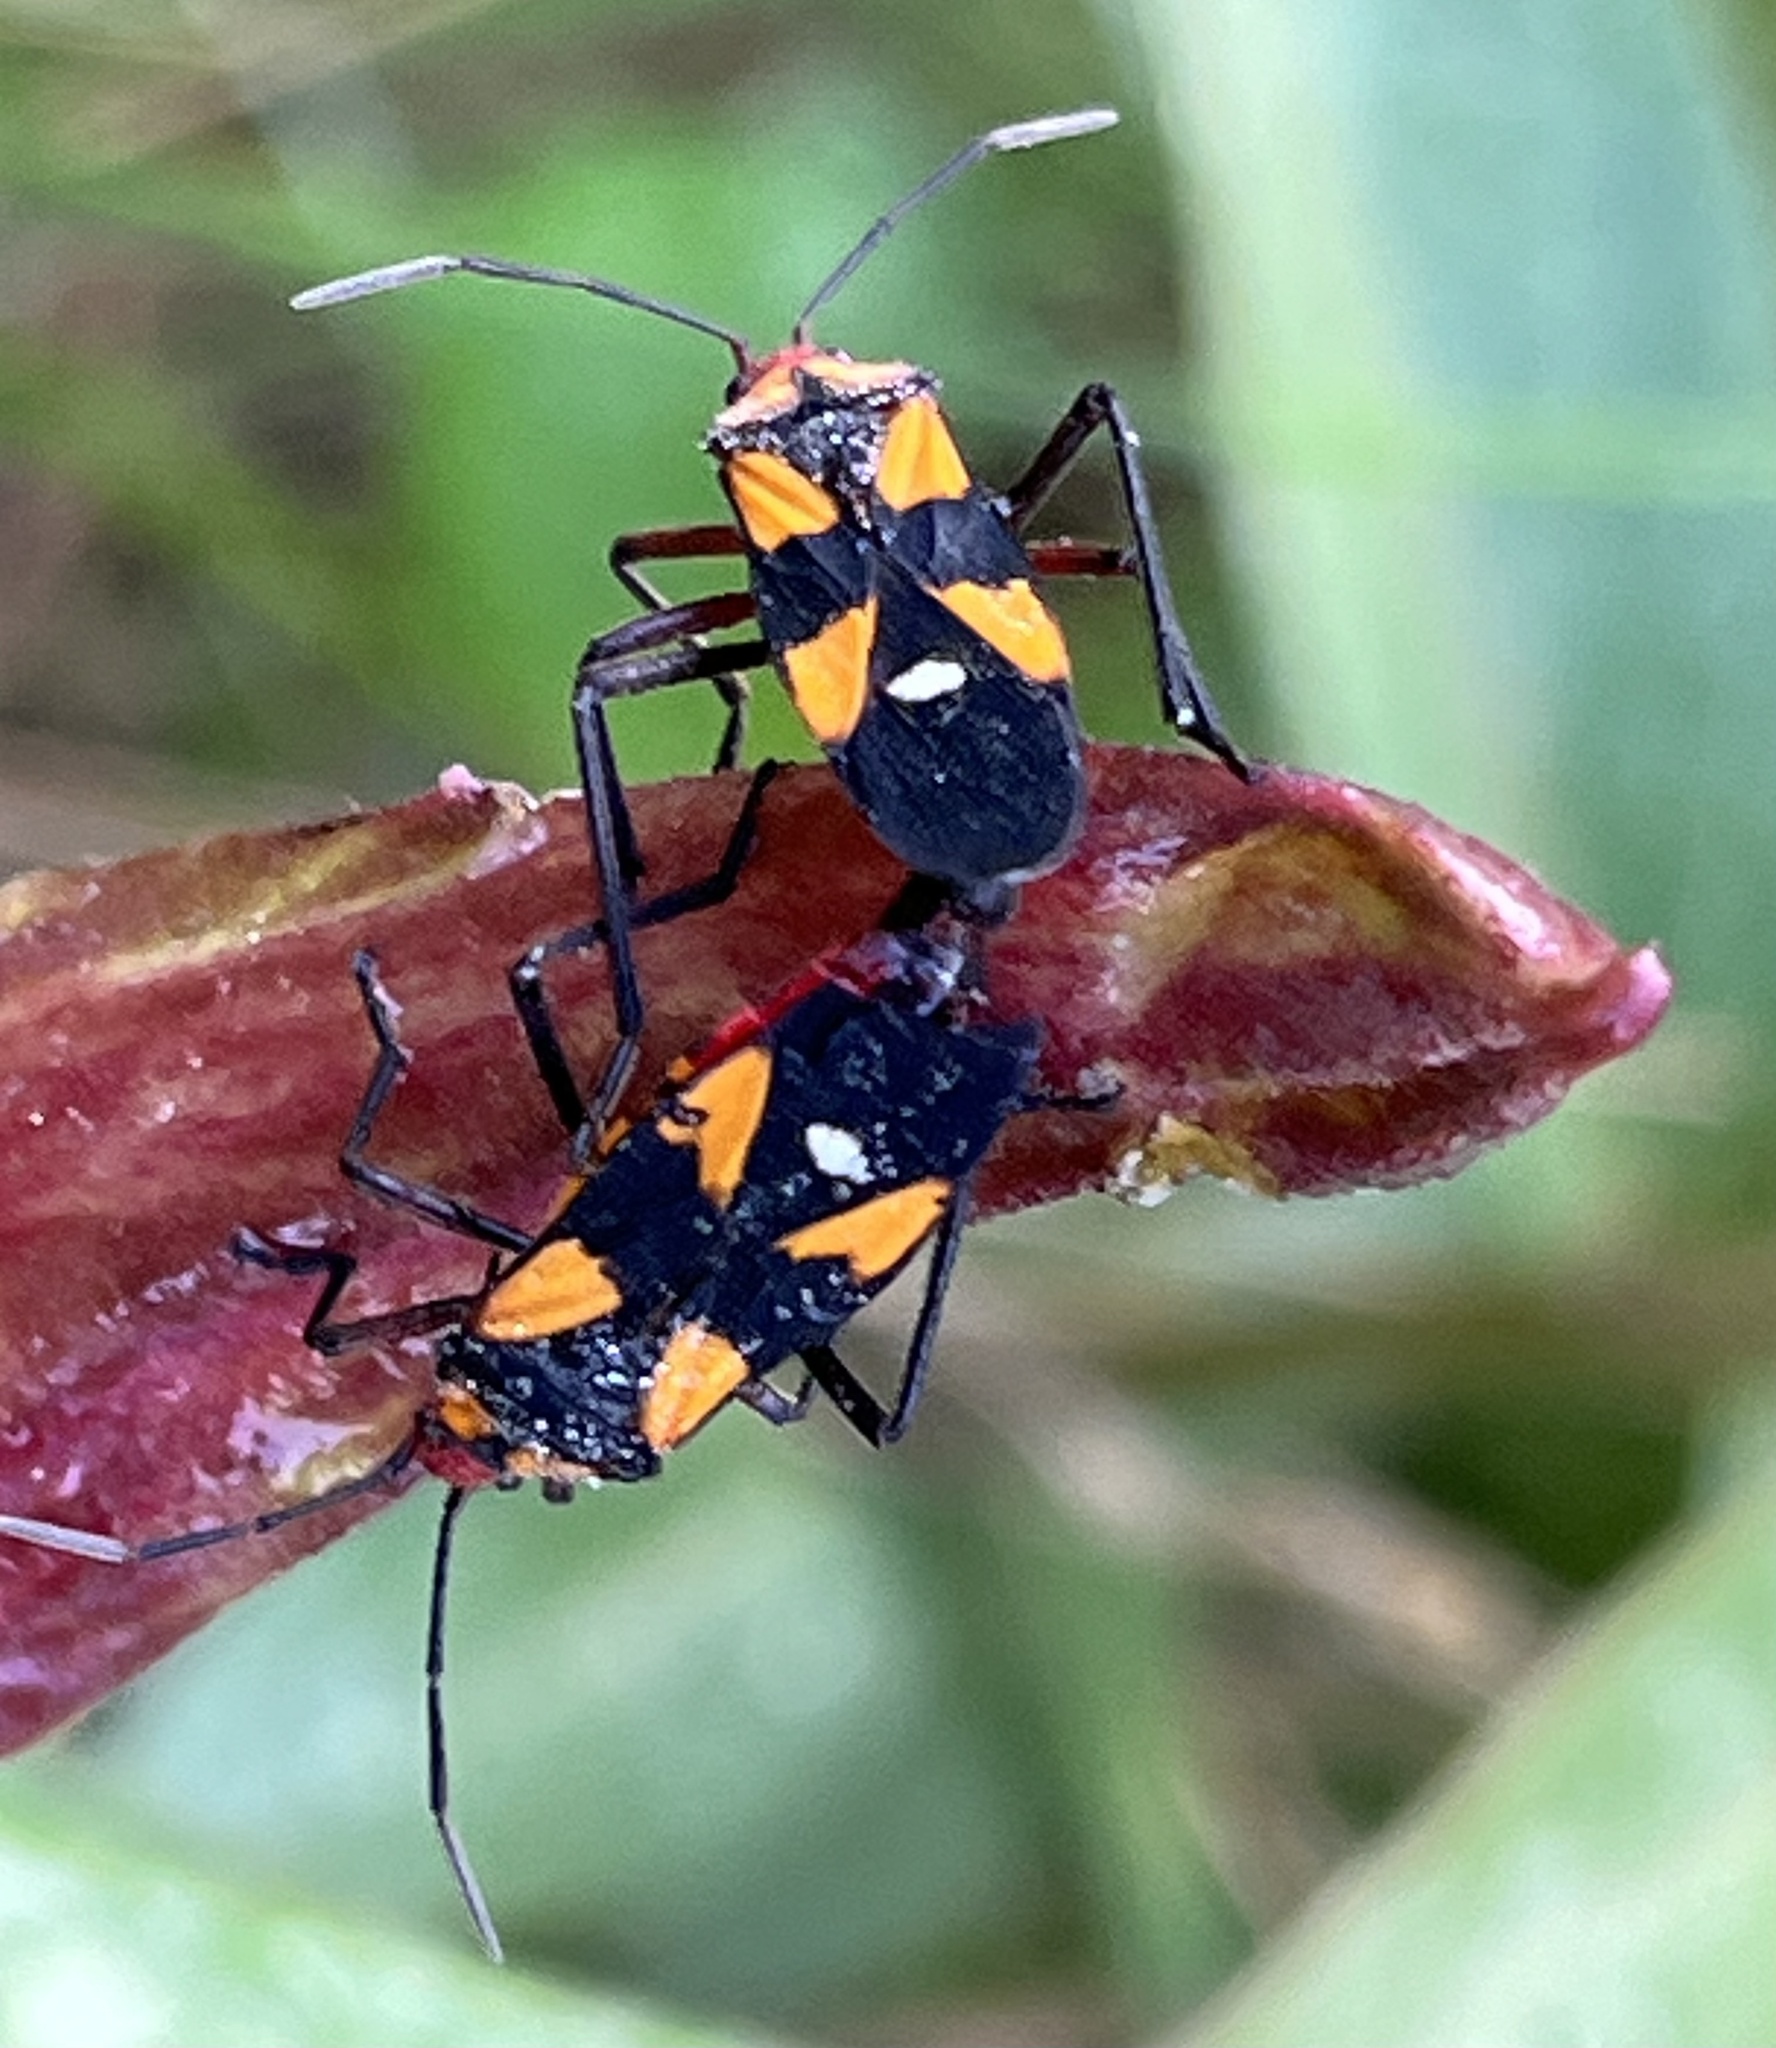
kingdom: Animalia
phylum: Arthropoda
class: Insecta
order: Hemiptera
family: Lygaeidae
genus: Oncopeltus
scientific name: Oncopeltus sexmaculatus
